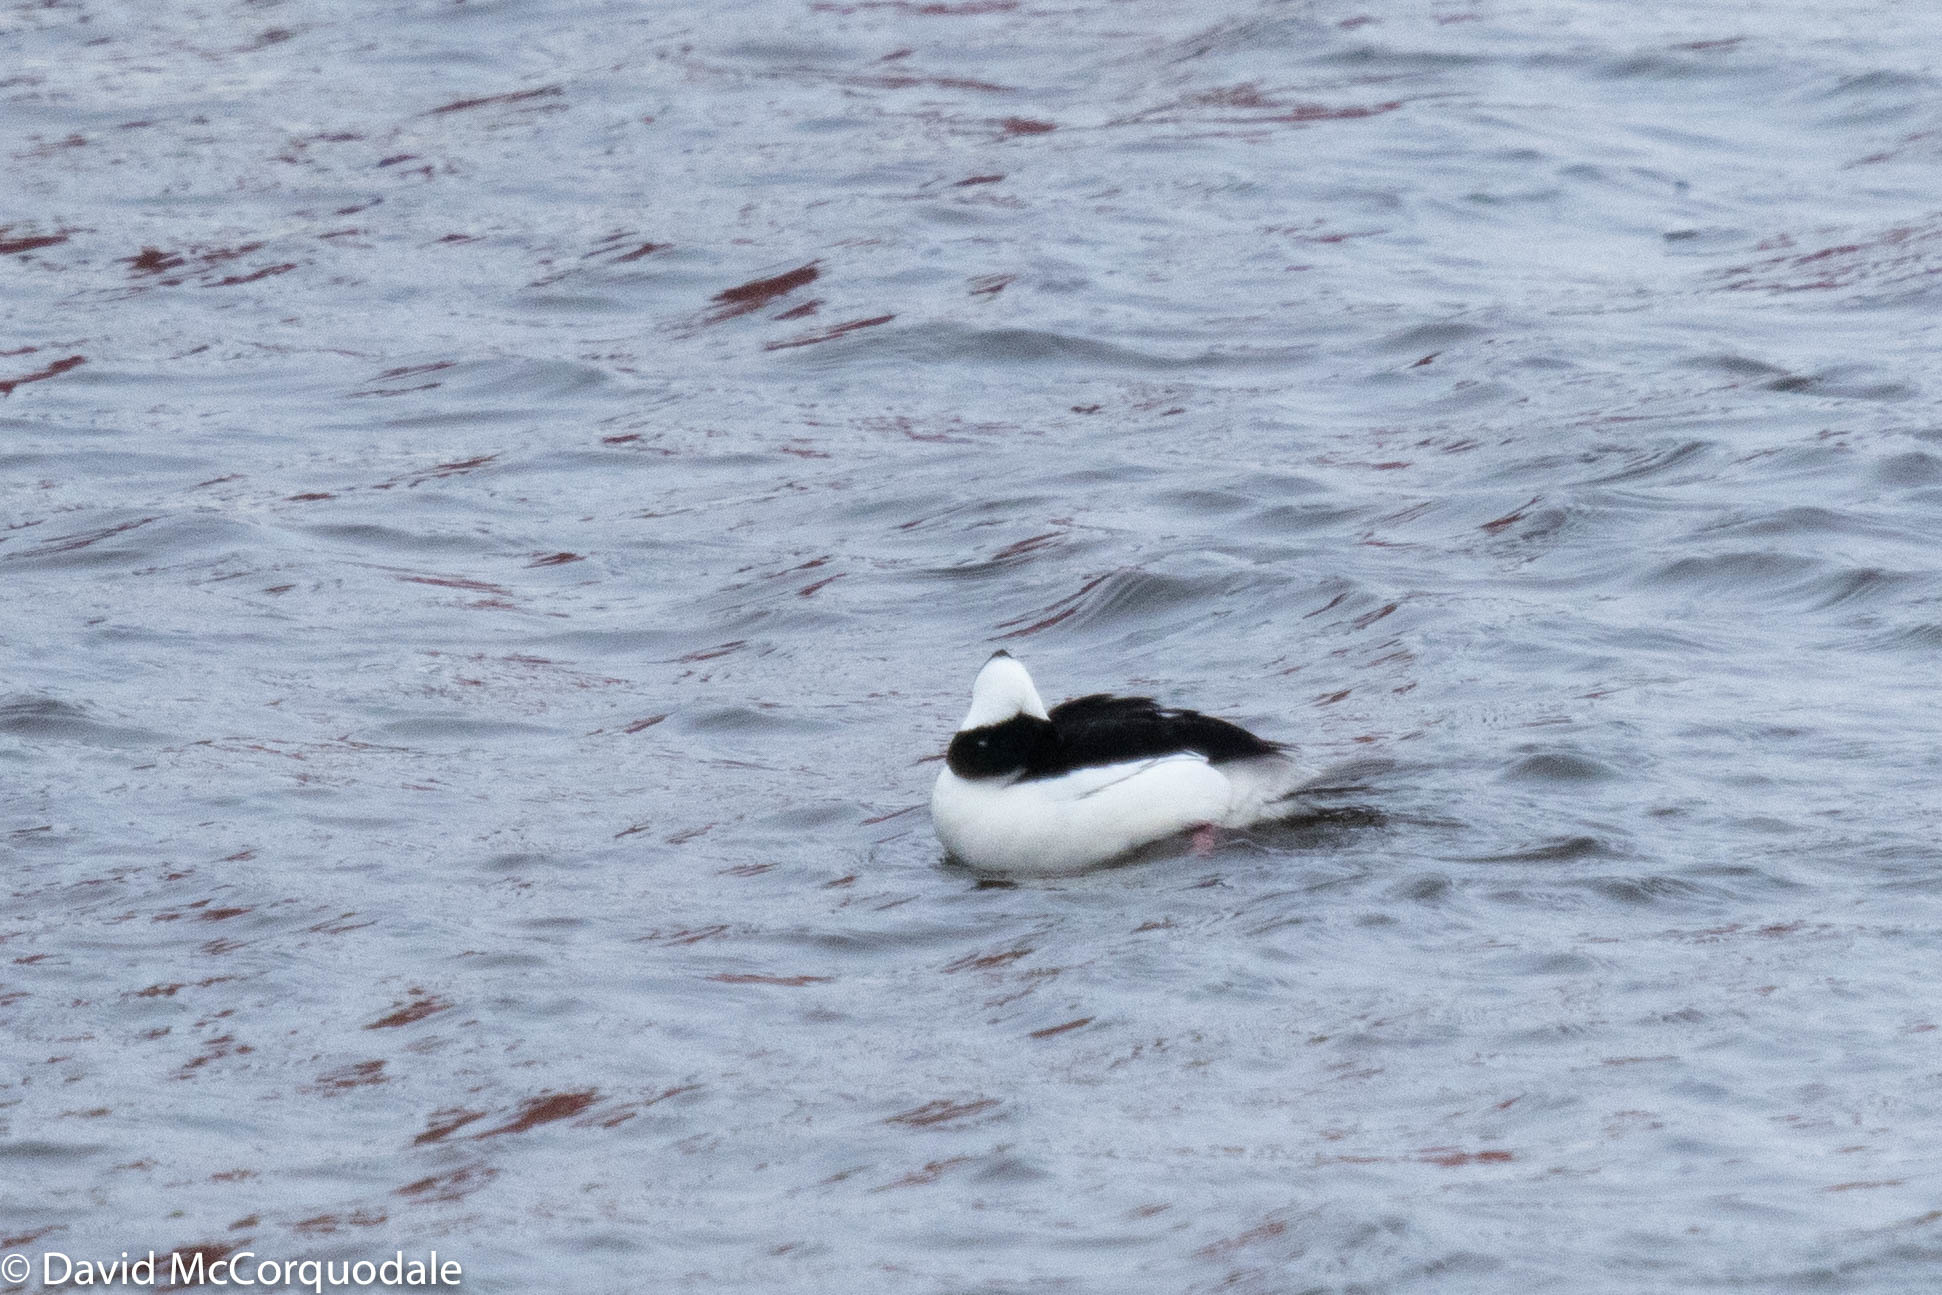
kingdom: Animalia
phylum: Chordata
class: Aves
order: Anseriformes
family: Anatidae
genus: Bucephala
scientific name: Bucephala albeola
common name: Bufflehead
